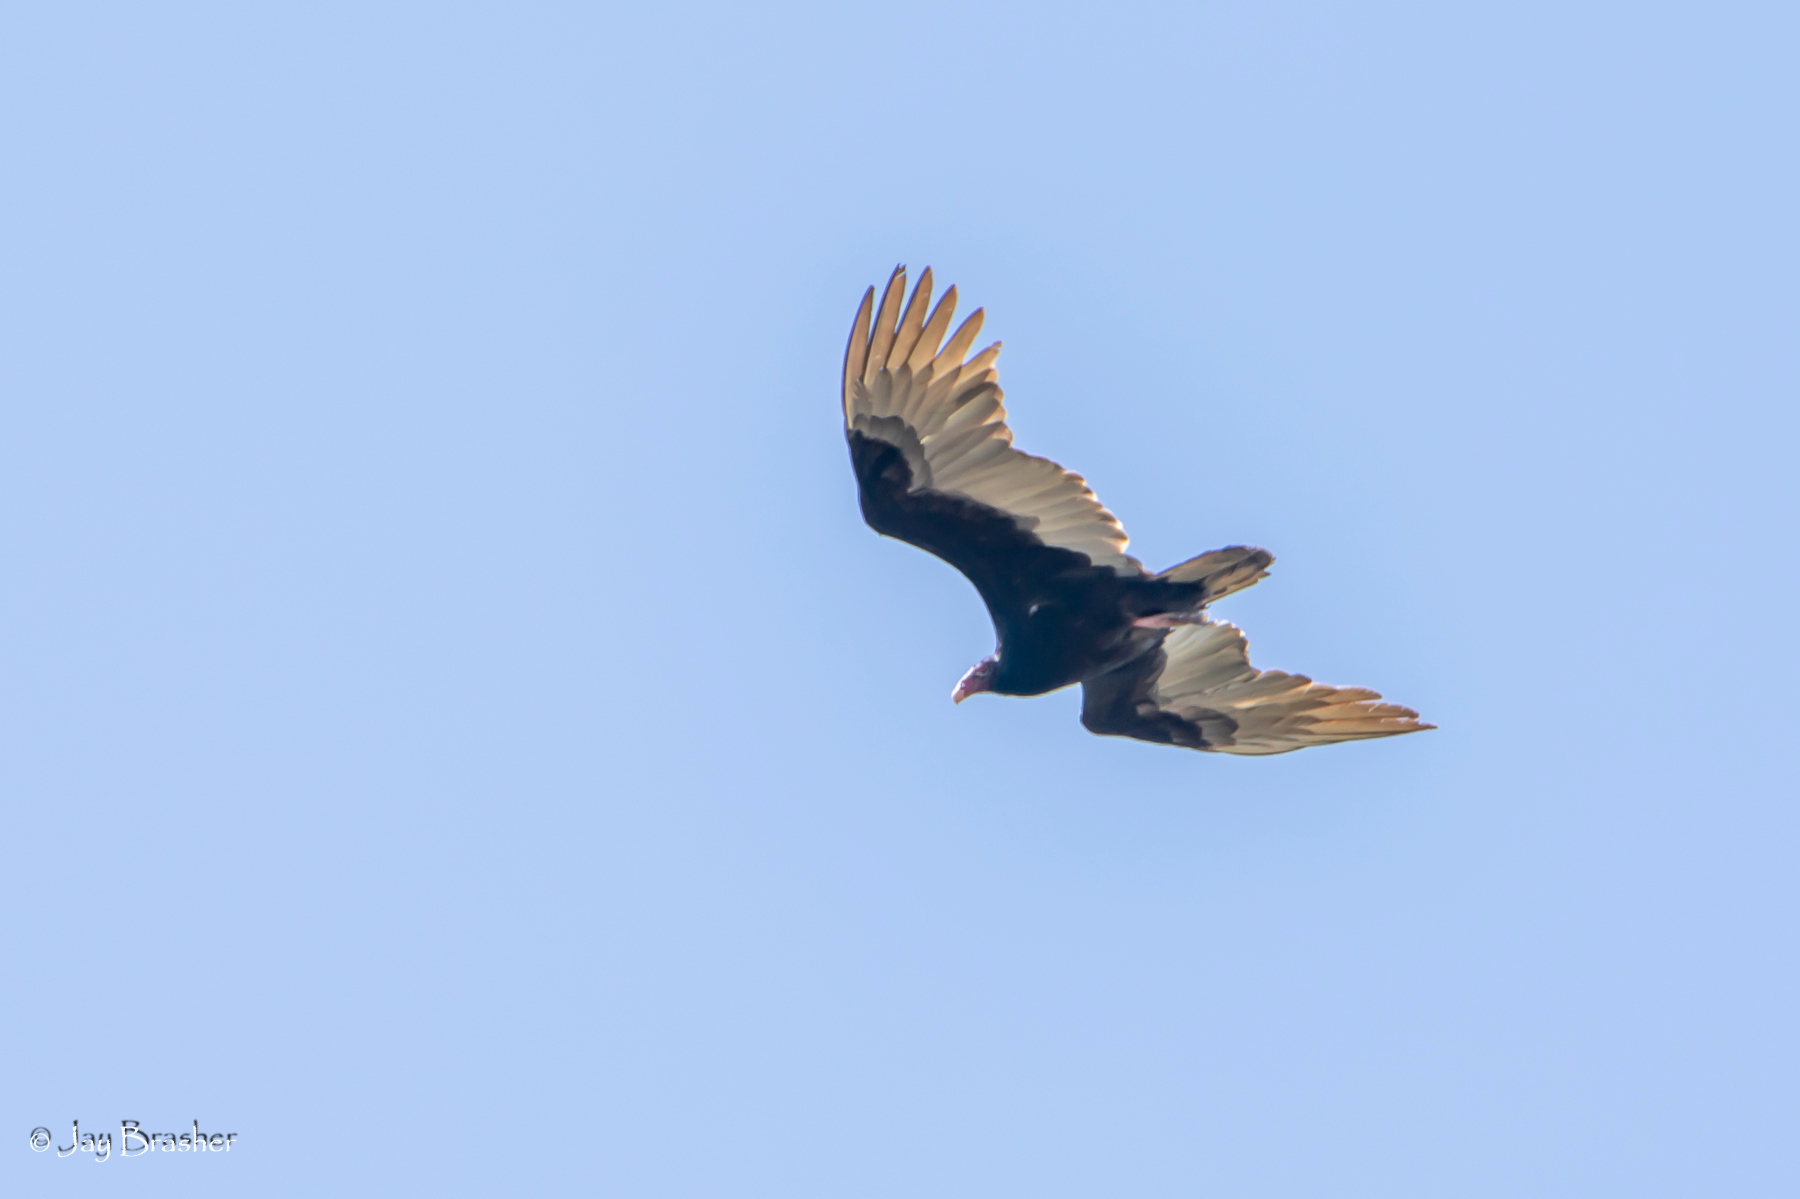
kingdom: Animalia
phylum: Chordata
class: Aves
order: Accipitriformes
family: Cathartidae
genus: Cathartes
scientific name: Cathartes aura
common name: Turkey vulture
